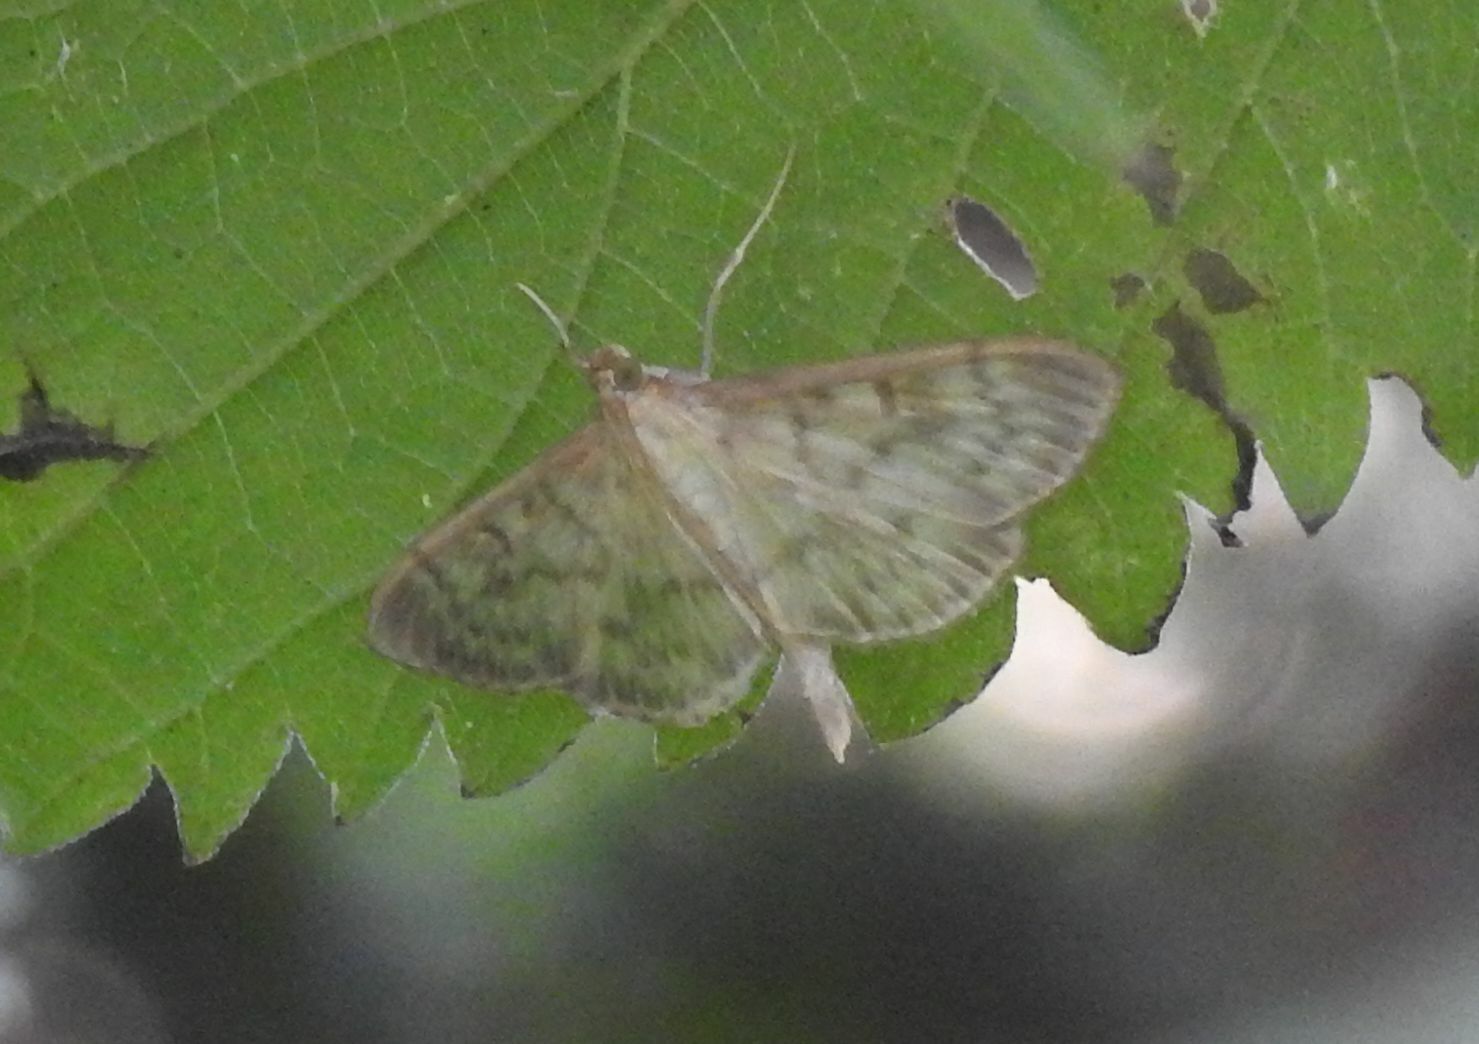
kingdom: Animalia
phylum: Arthropoda
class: Insecta
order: Lepidoptera
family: Crambidae
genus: Patania
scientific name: Patania ruralis
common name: Mother of pearl
